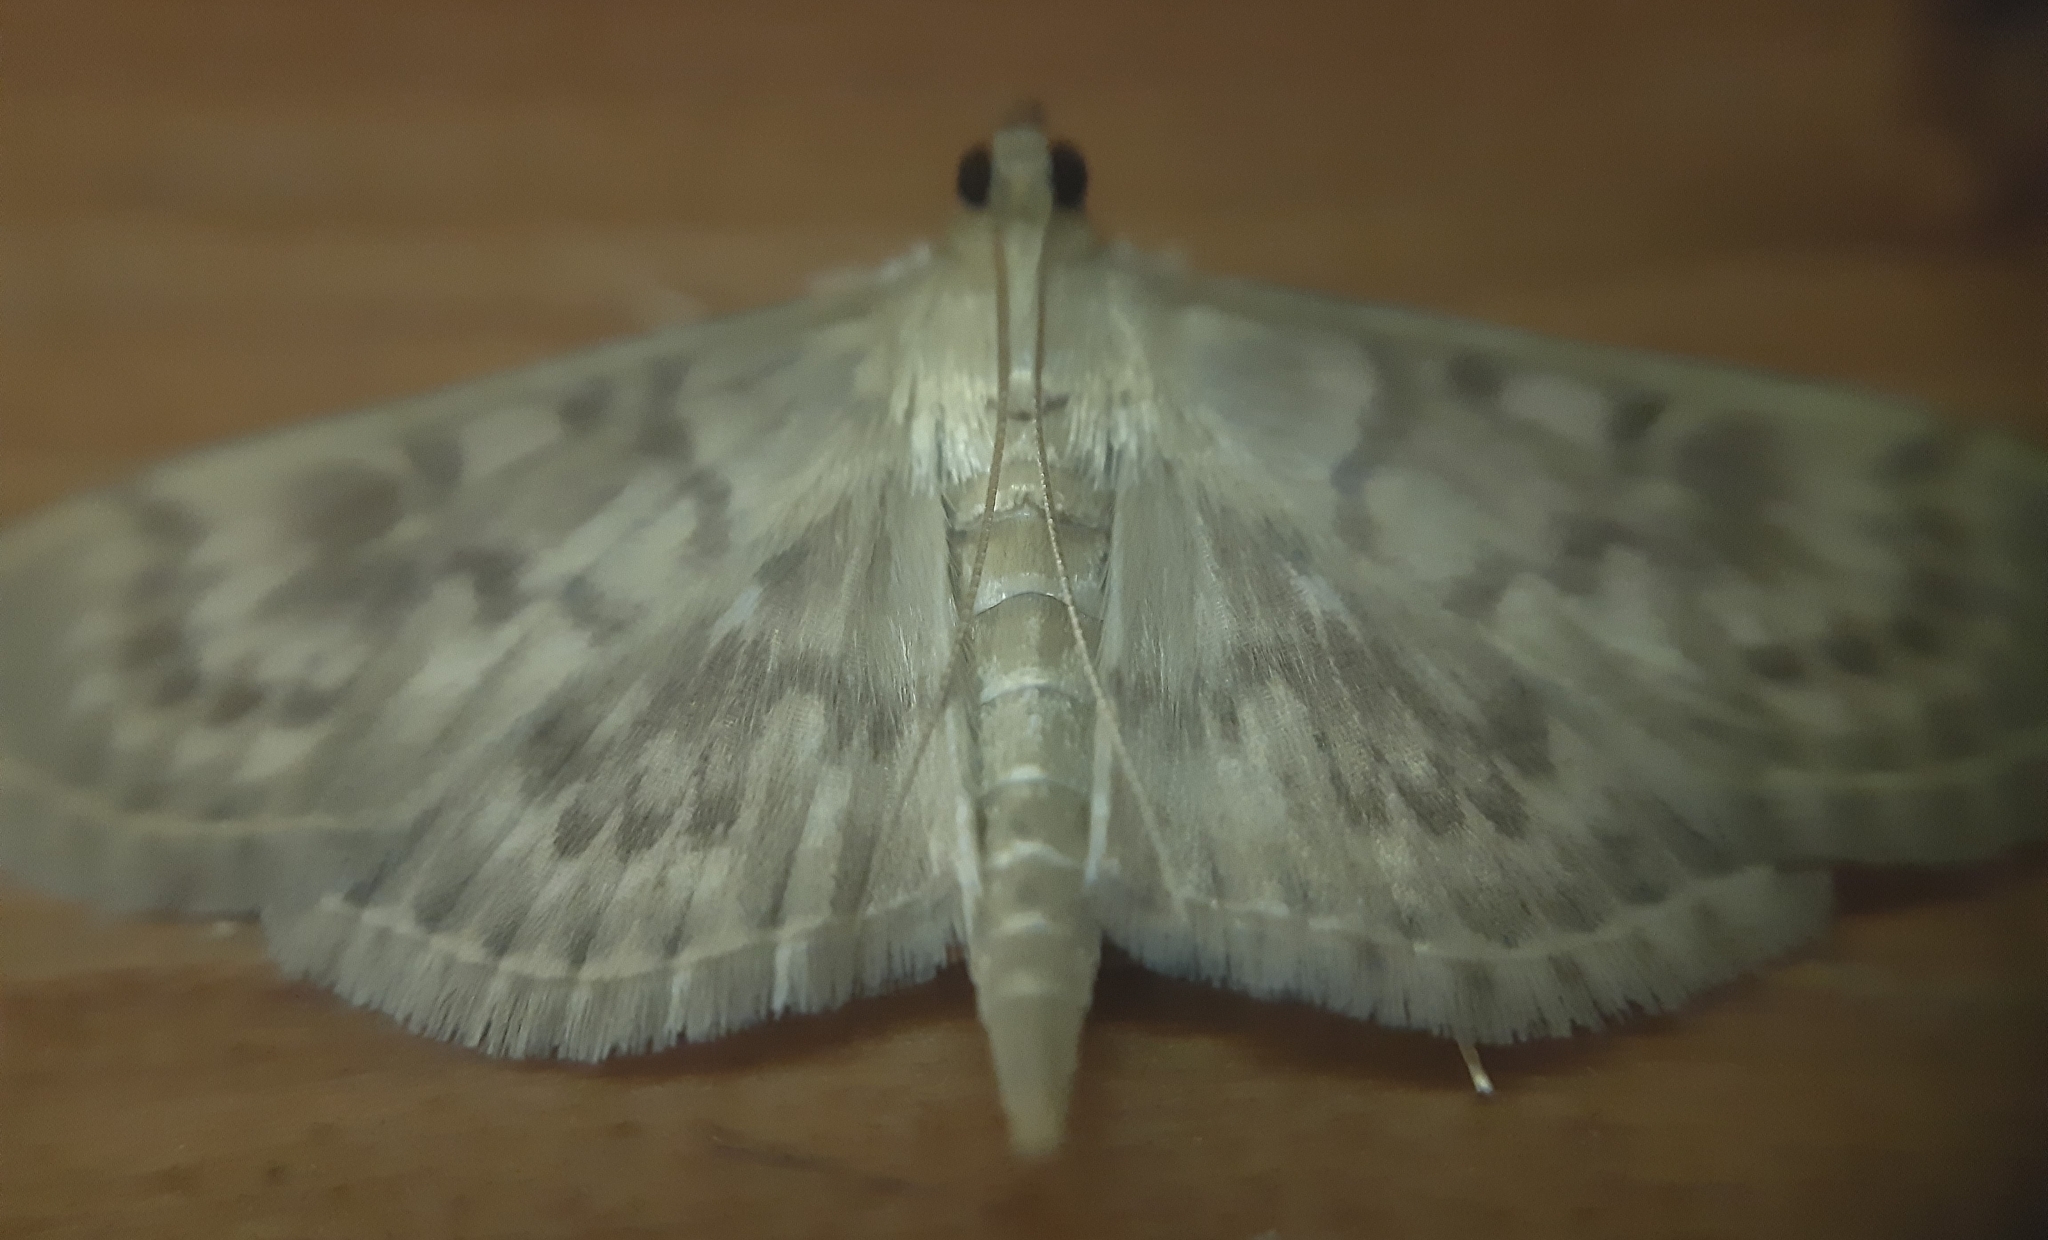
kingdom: Animalia
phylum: Arthropoda
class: Insecta
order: Lepidoptera
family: Crambidae
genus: Patania
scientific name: Patania ruralis
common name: Mother of pearl
